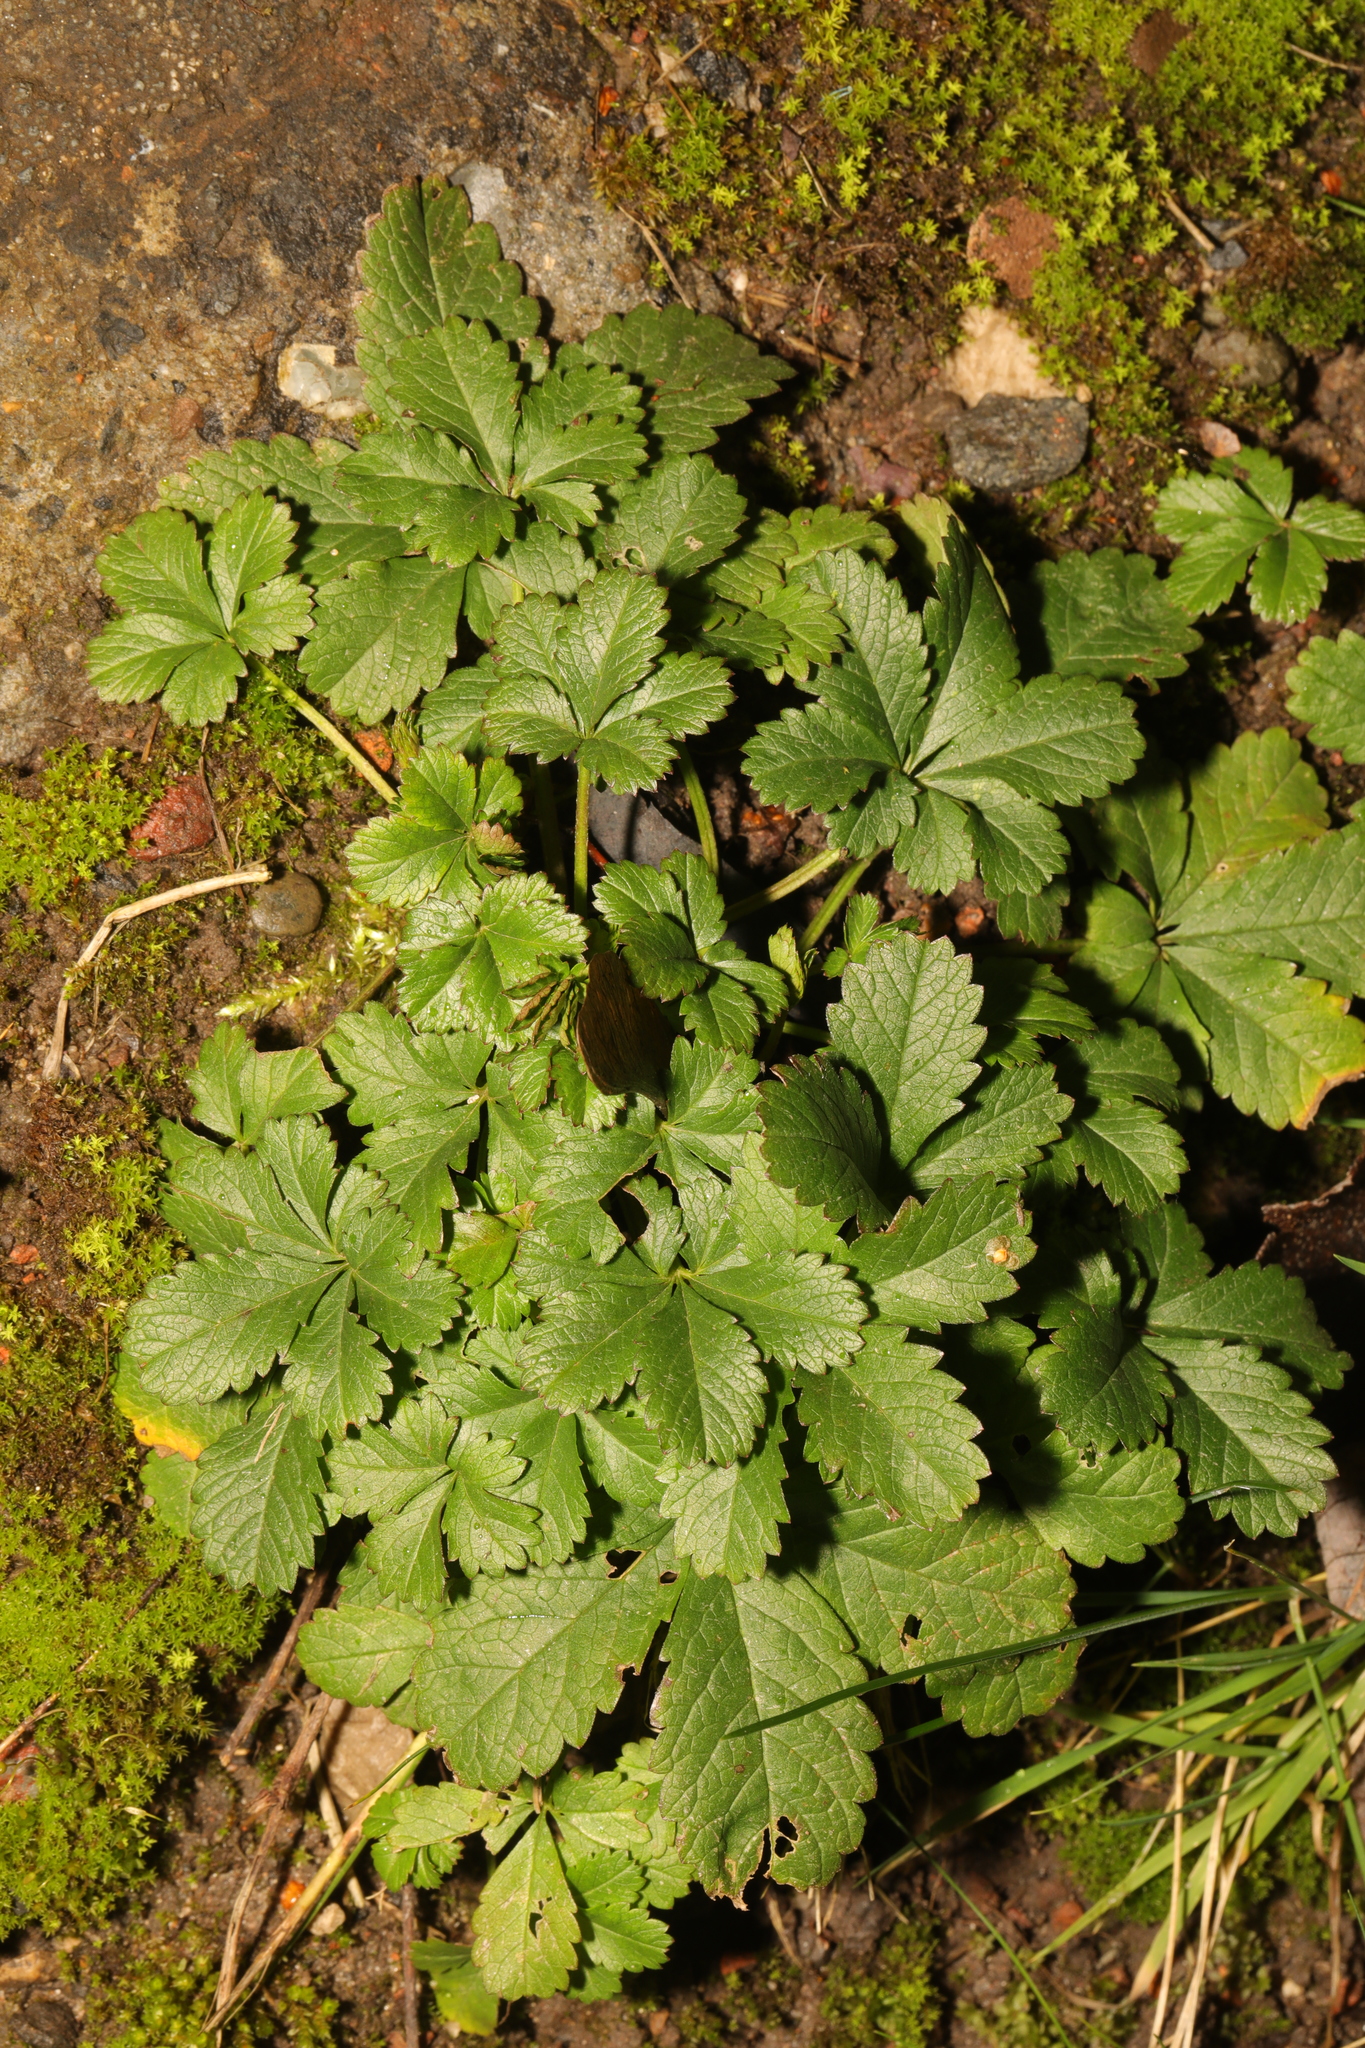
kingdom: Plantae
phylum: Tracheophyta
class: Magnoliopsida
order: Rosales
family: Rosaceae
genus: Potentilla
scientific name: Potentilla reptans
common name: Creeping cinquefoil
